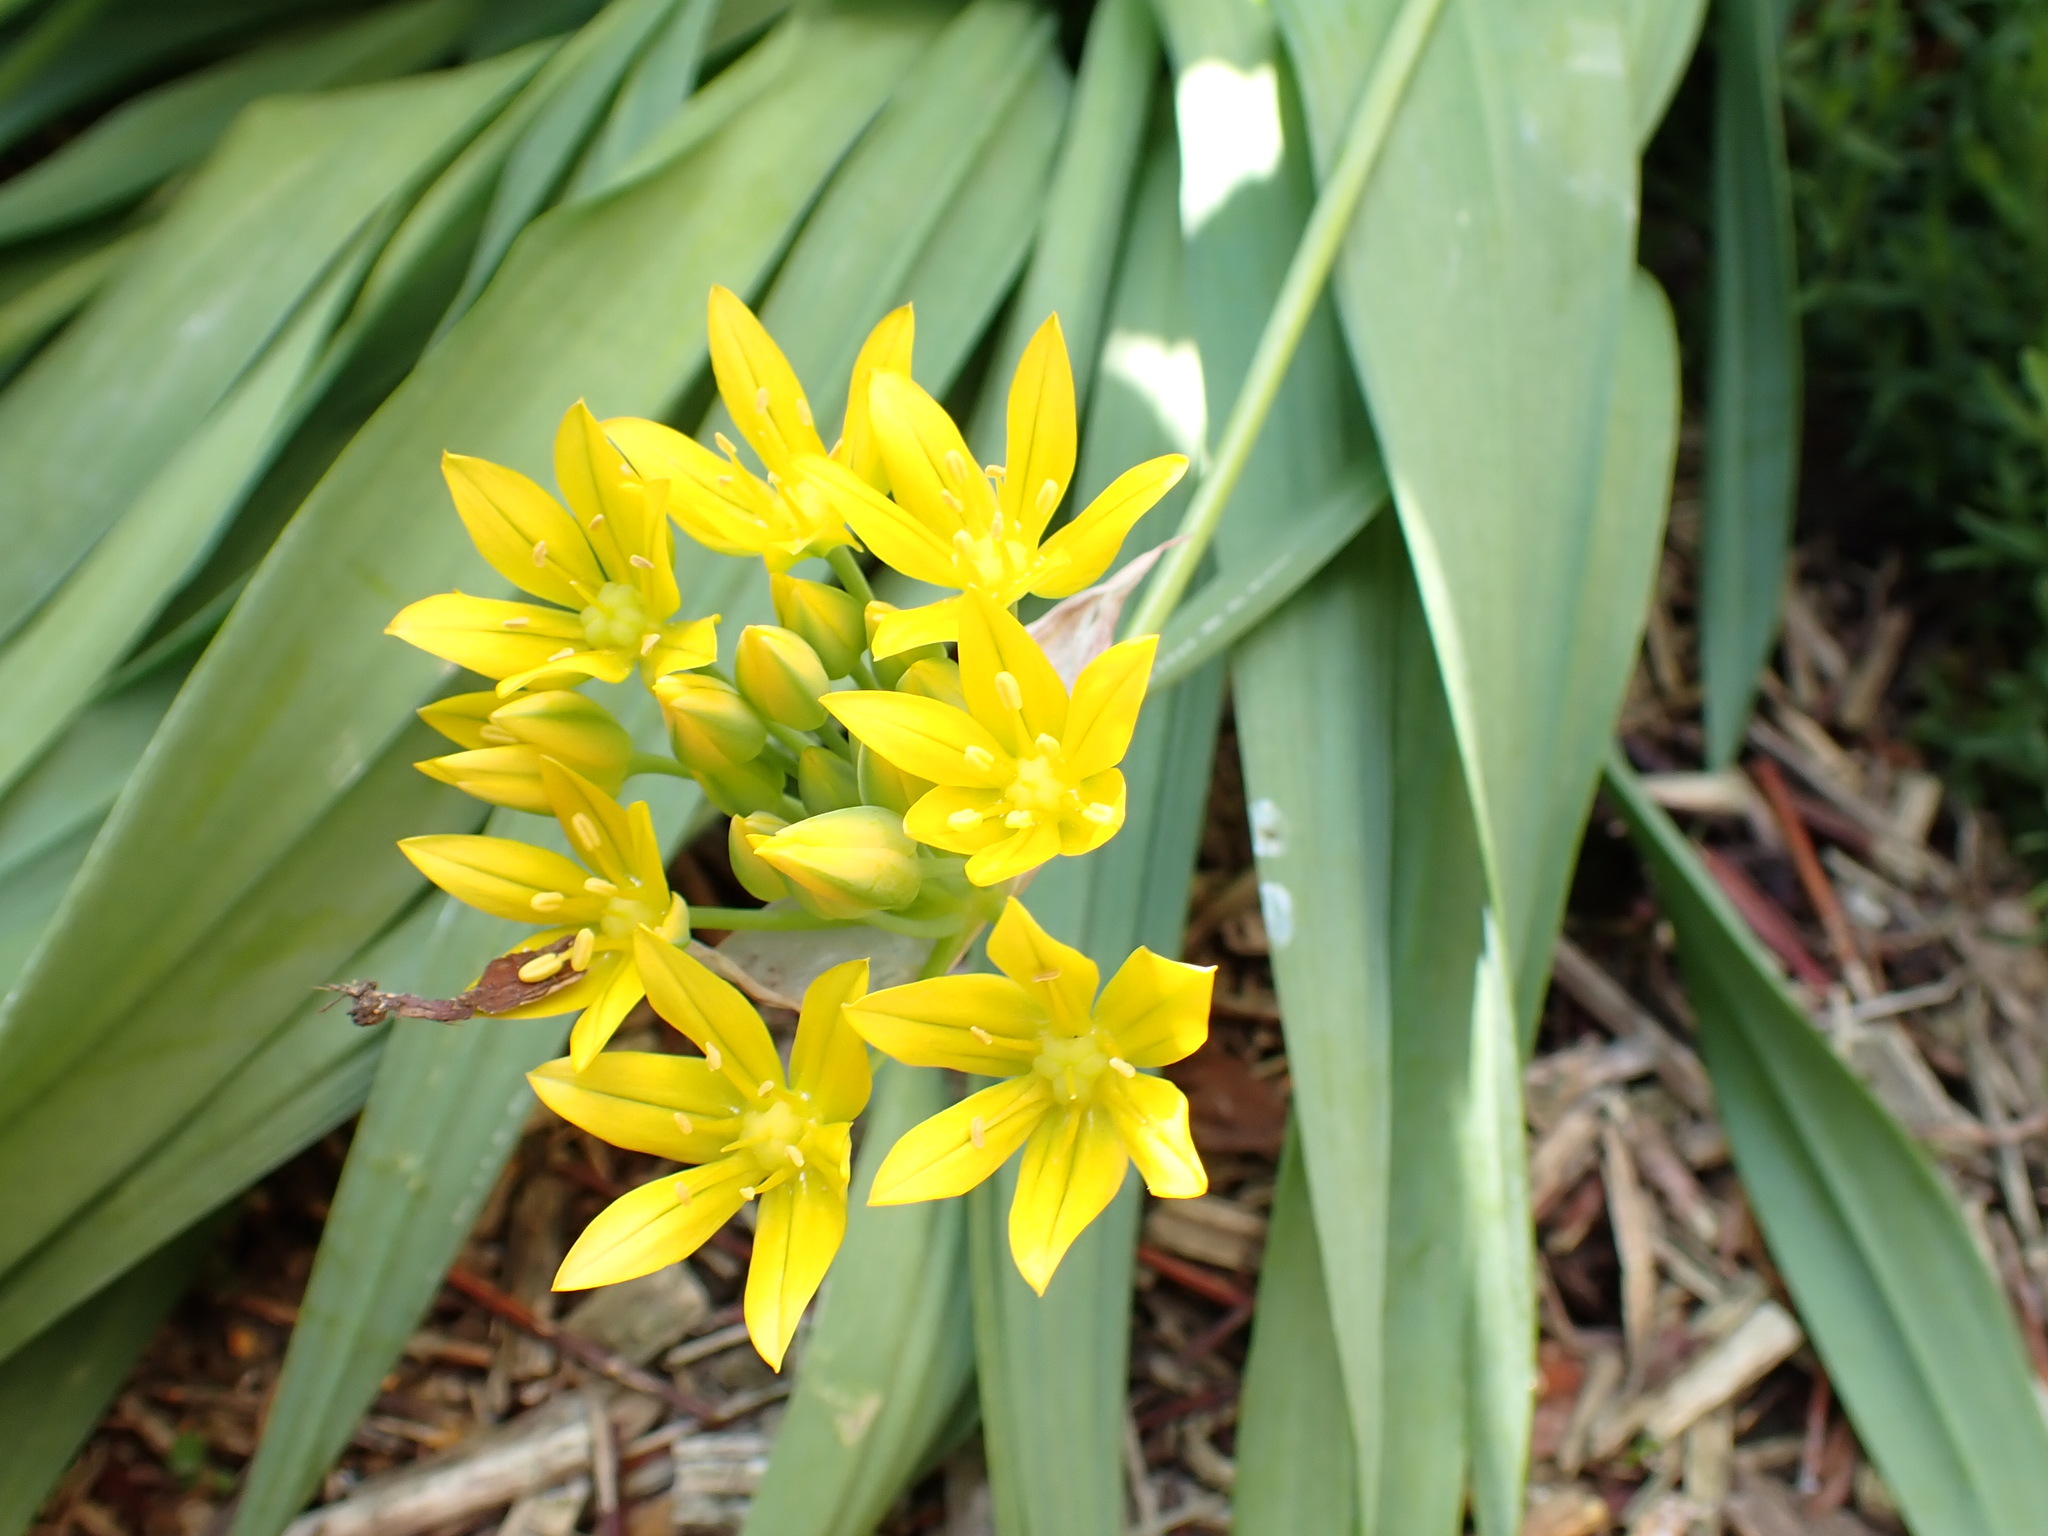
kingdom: Plantae
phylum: Tracheophyta
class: Liliopsida
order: Asparagales
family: Amaryllidaceae
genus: Allium
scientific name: Allium moly
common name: Yellow garlic
